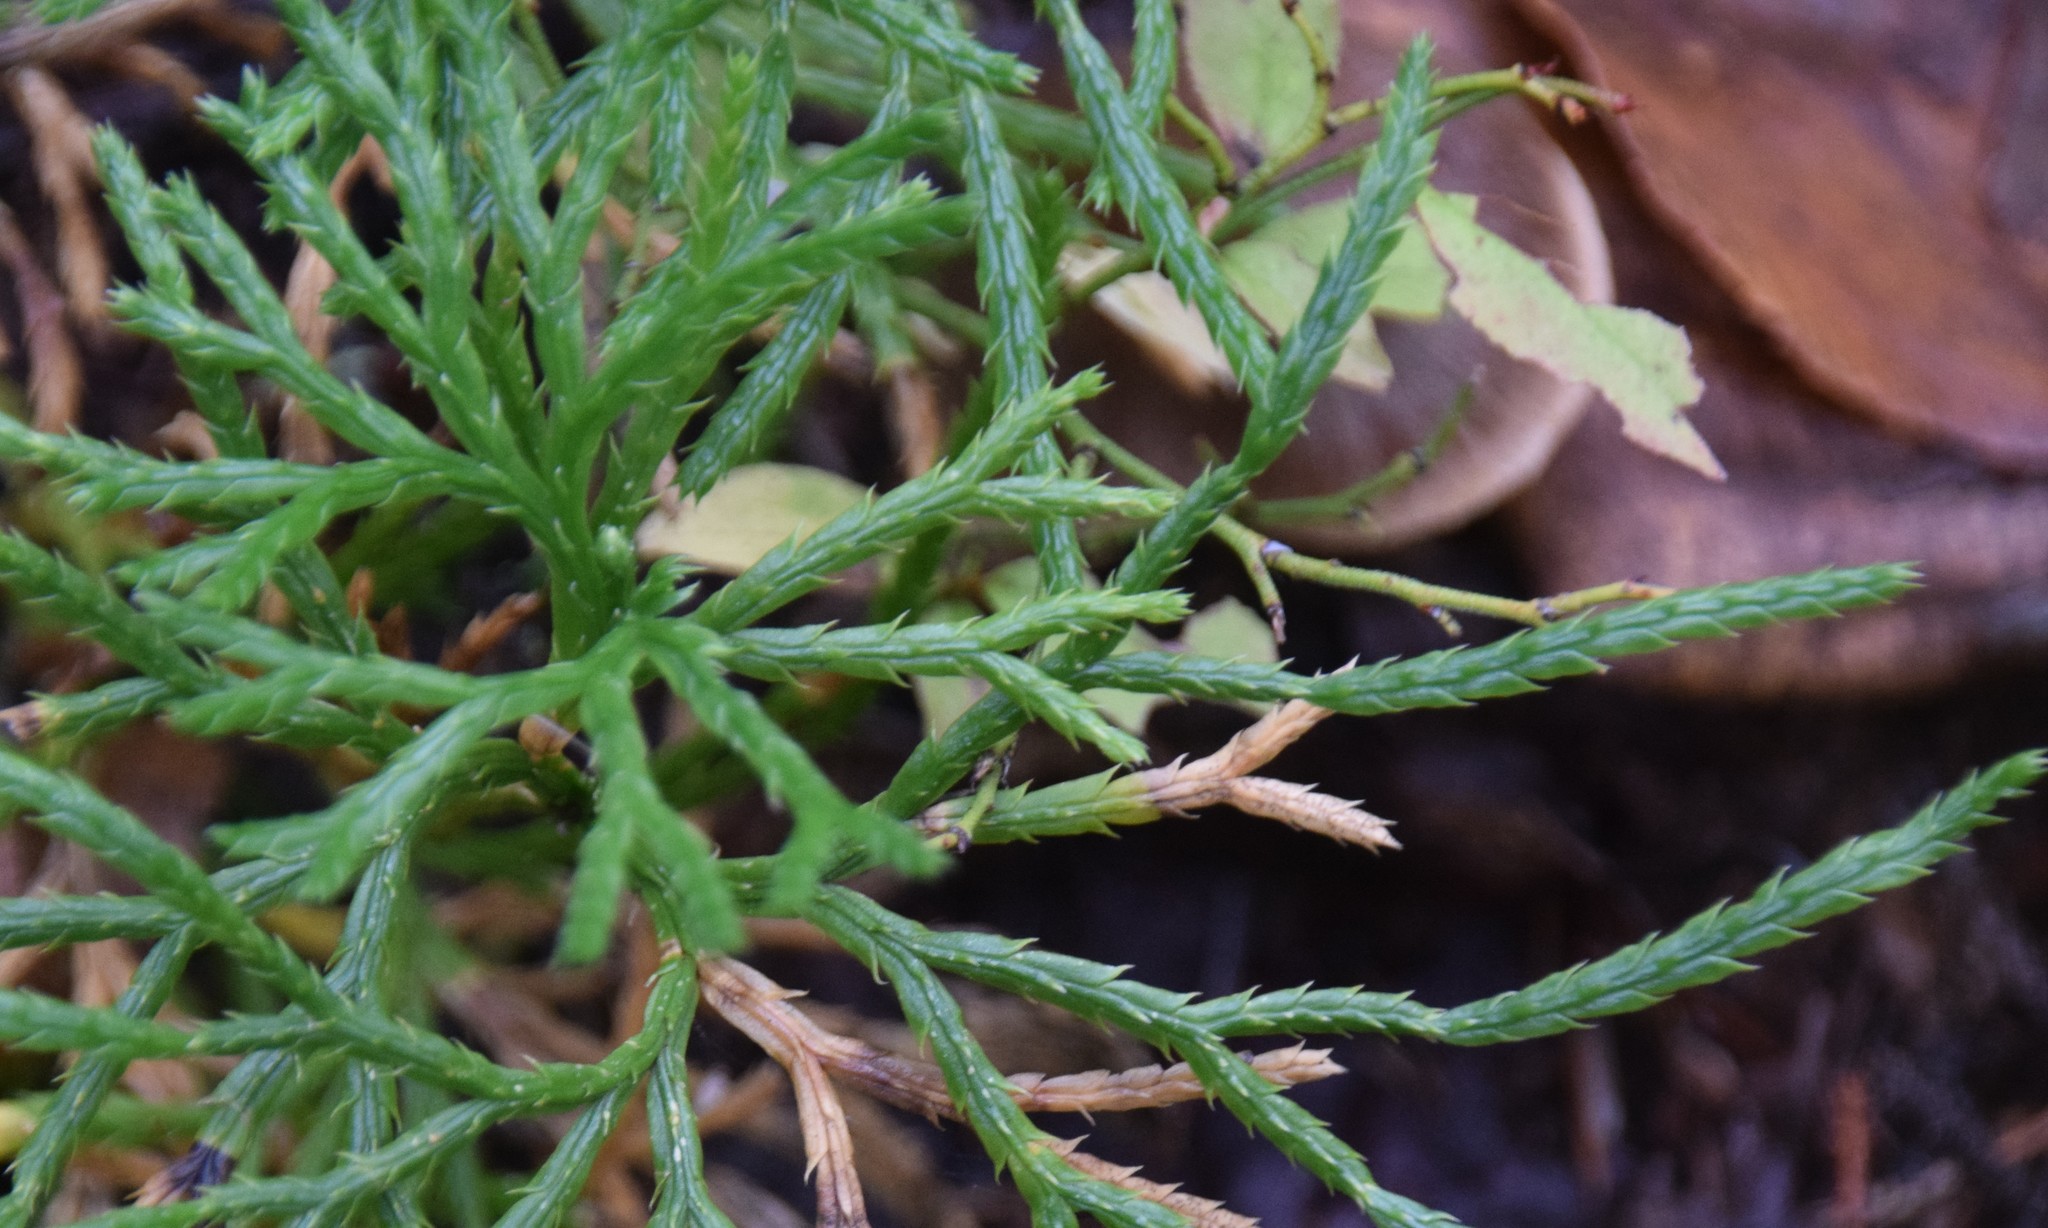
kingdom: Plantae
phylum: Tracheophyta
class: Lycopodiopsida
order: Lycopodiales
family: Lycopodiaceae
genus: Diphasiastrum
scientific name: Diphasiastrum complanatum
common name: Northern running-pine
